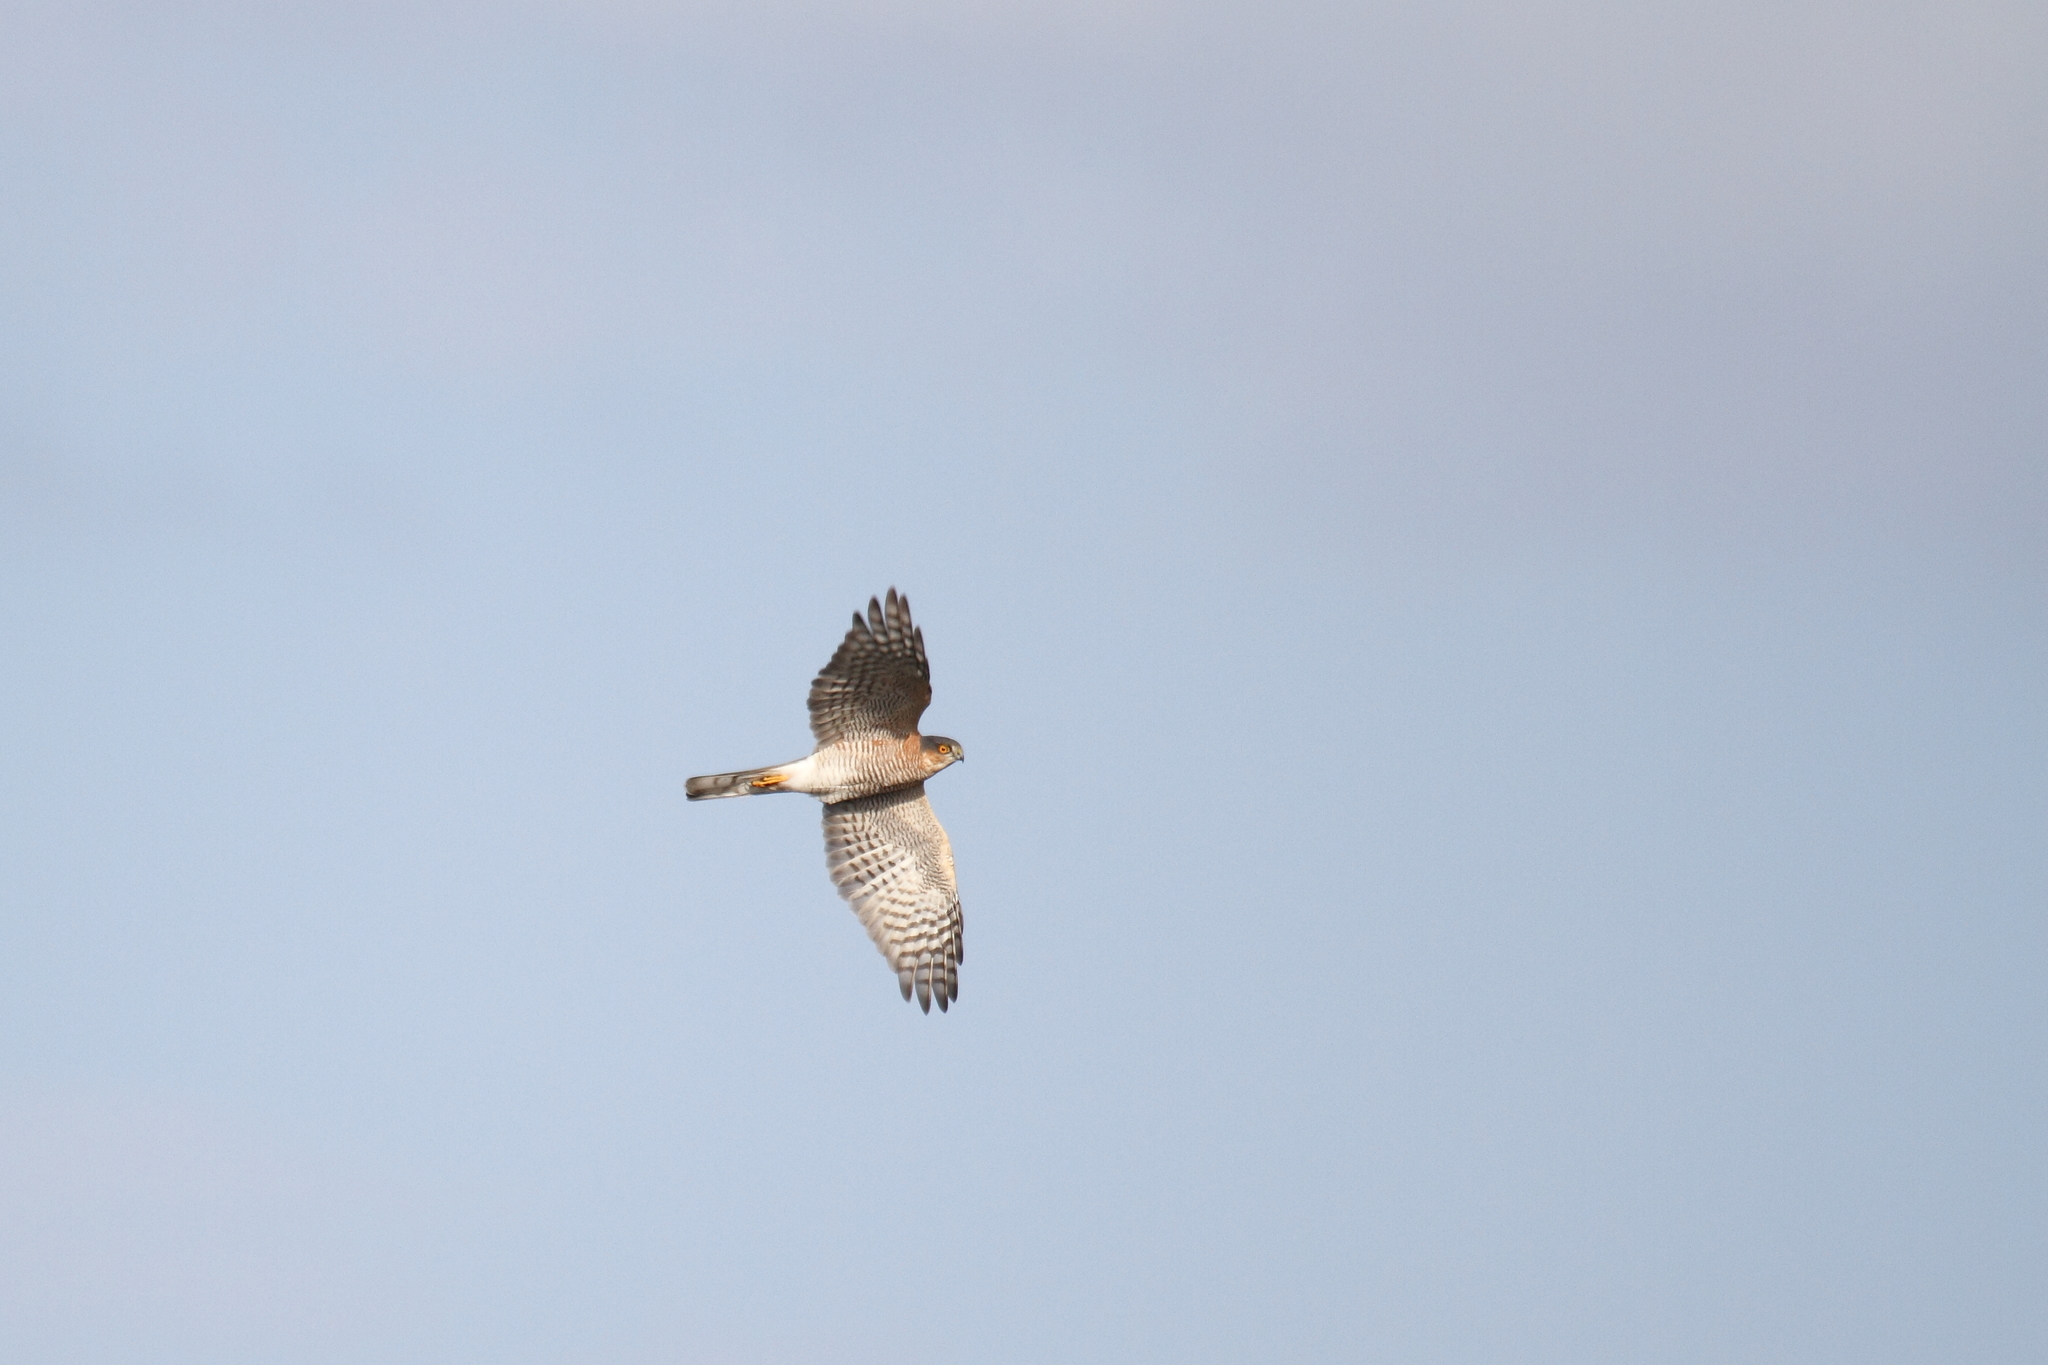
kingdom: Animalia
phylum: Chordata
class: Aves
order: Accipitriformes
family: Accipitridae
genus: Accipiter
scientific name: Accipiter nisus
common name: Eurasian sparrowhawk
